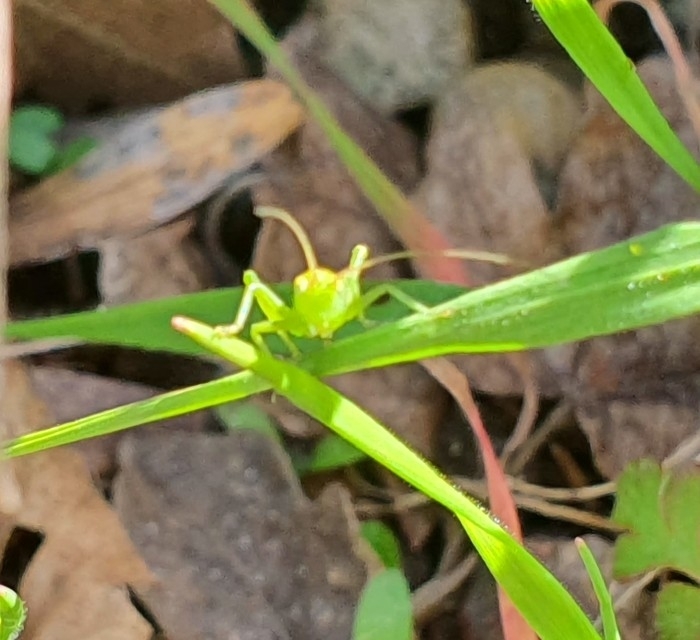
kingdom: Animalia
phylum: Arthropoda
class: Insecta
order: Orthoptera
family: Tettigoniidae
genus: Tettigonia
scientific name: Tettigonia viridissima
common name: Great green bush-cricket
